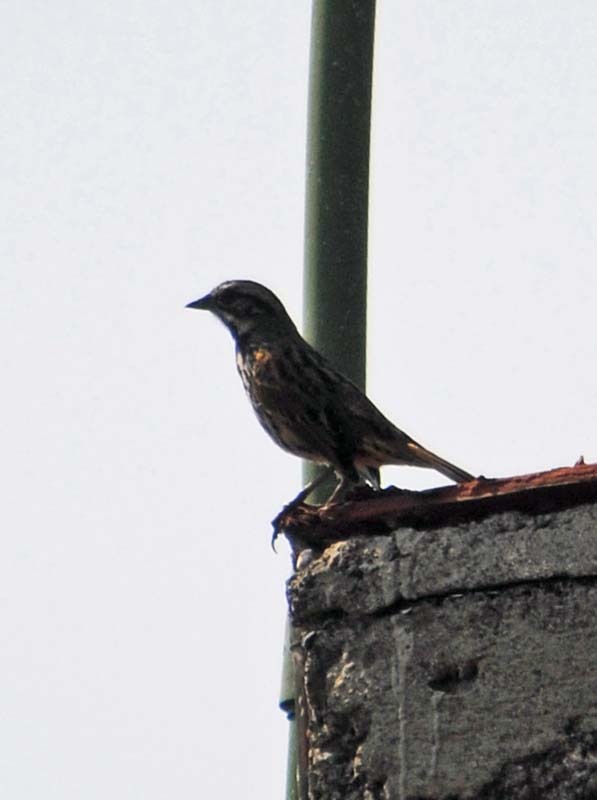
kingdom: Animalia
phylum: Chordata
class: Aves
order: Passeriformes
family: Passerellidae
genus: Melospiza
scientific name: Melospiza melodia
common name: Song sparrow
